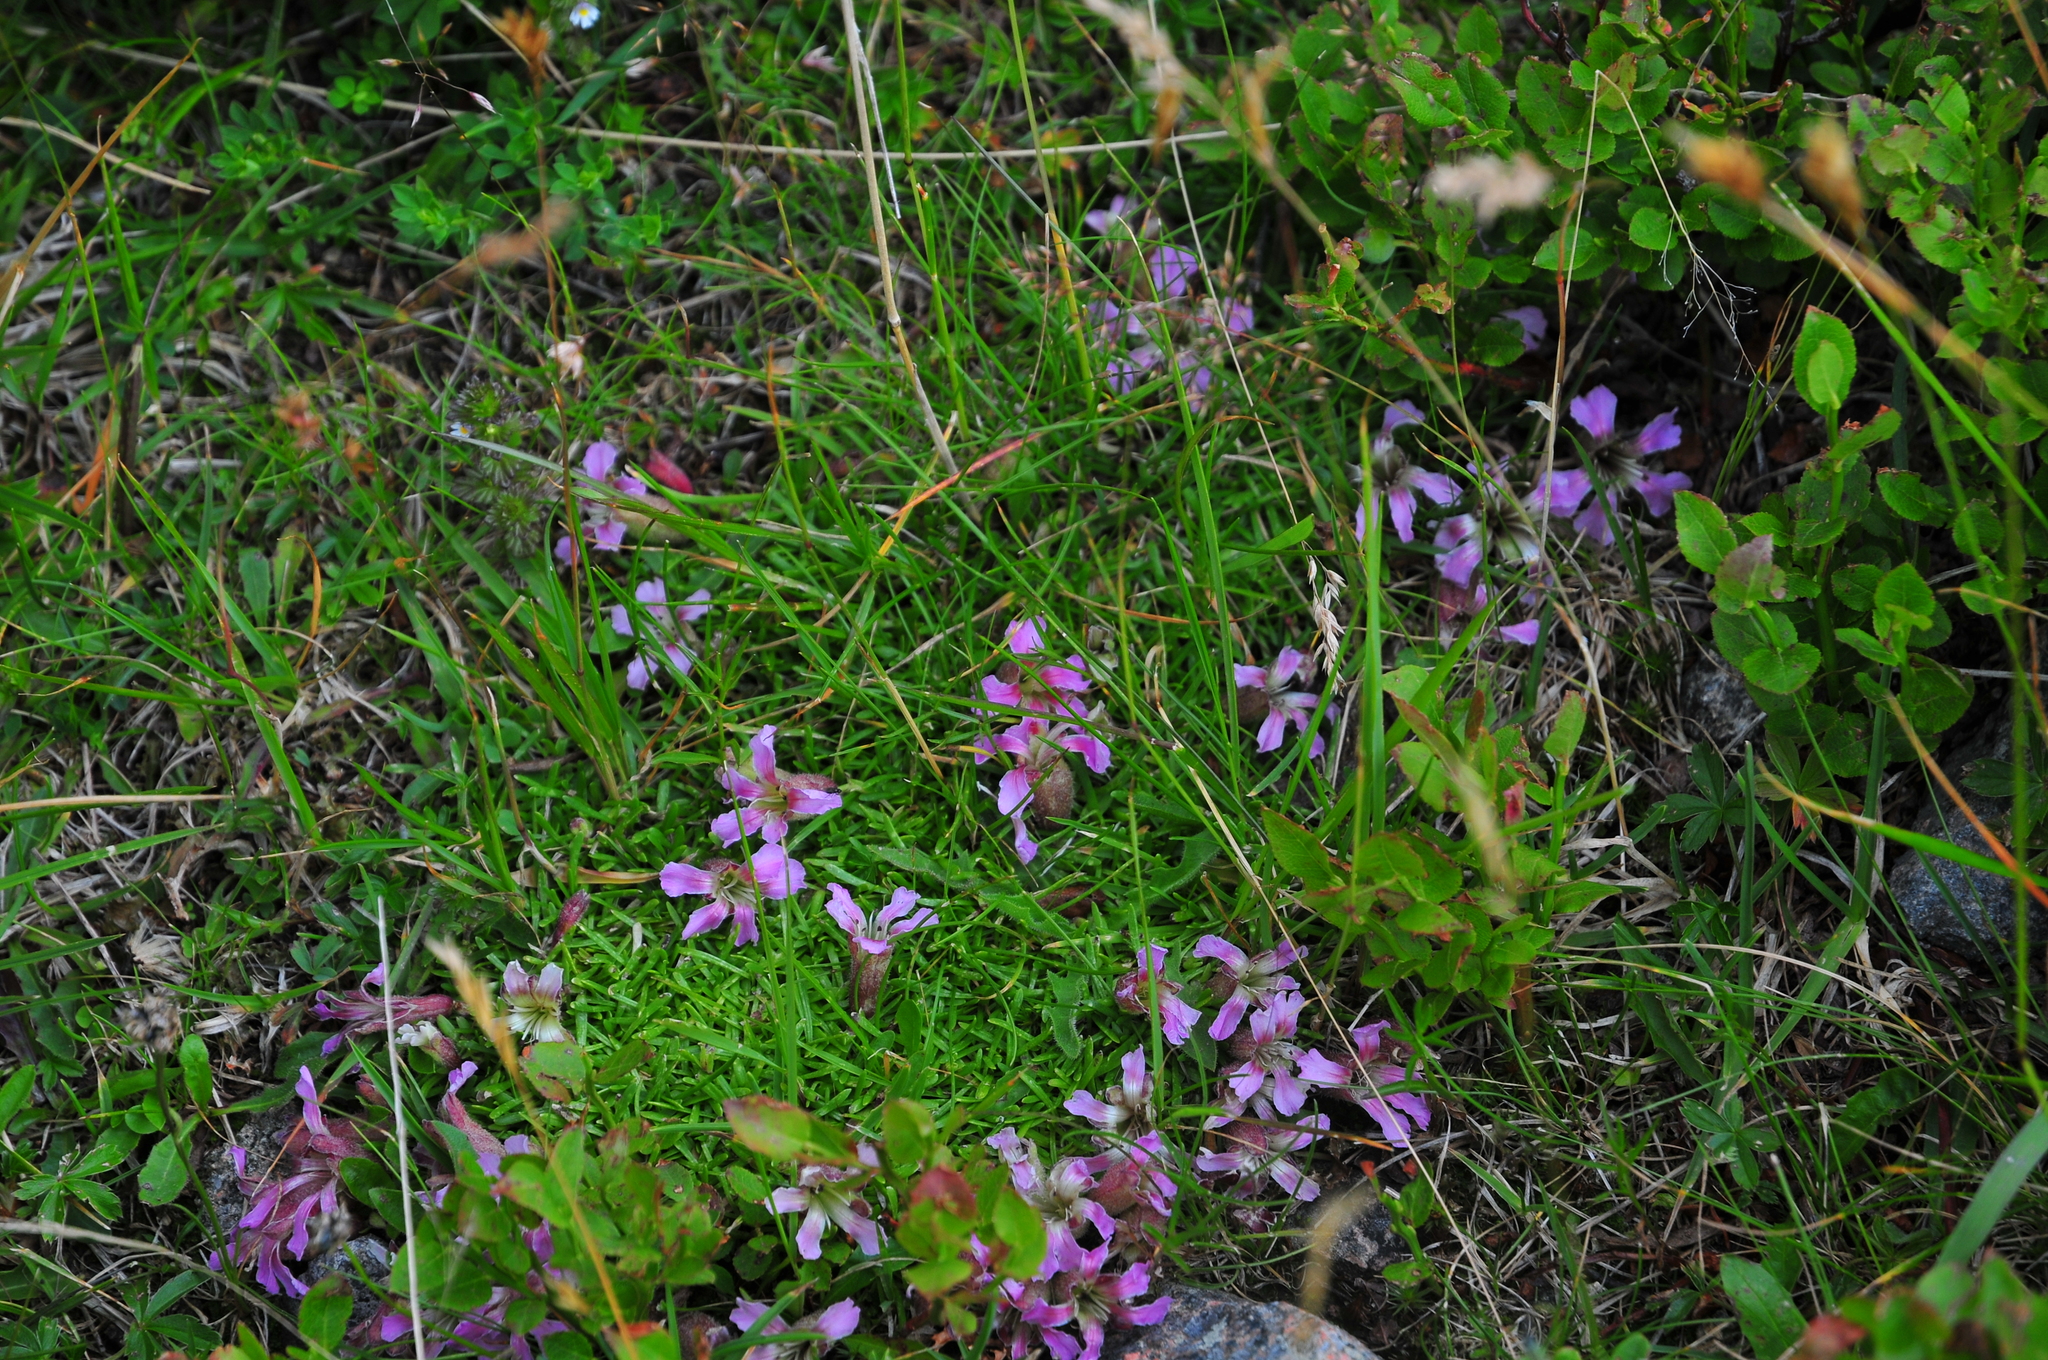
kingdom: Plantae
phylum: Tracheophyta
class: Magnoliopsida
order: Caryophyllales
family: Caryophyllaceae
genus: Saponaria
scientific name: Saponaria pumila
